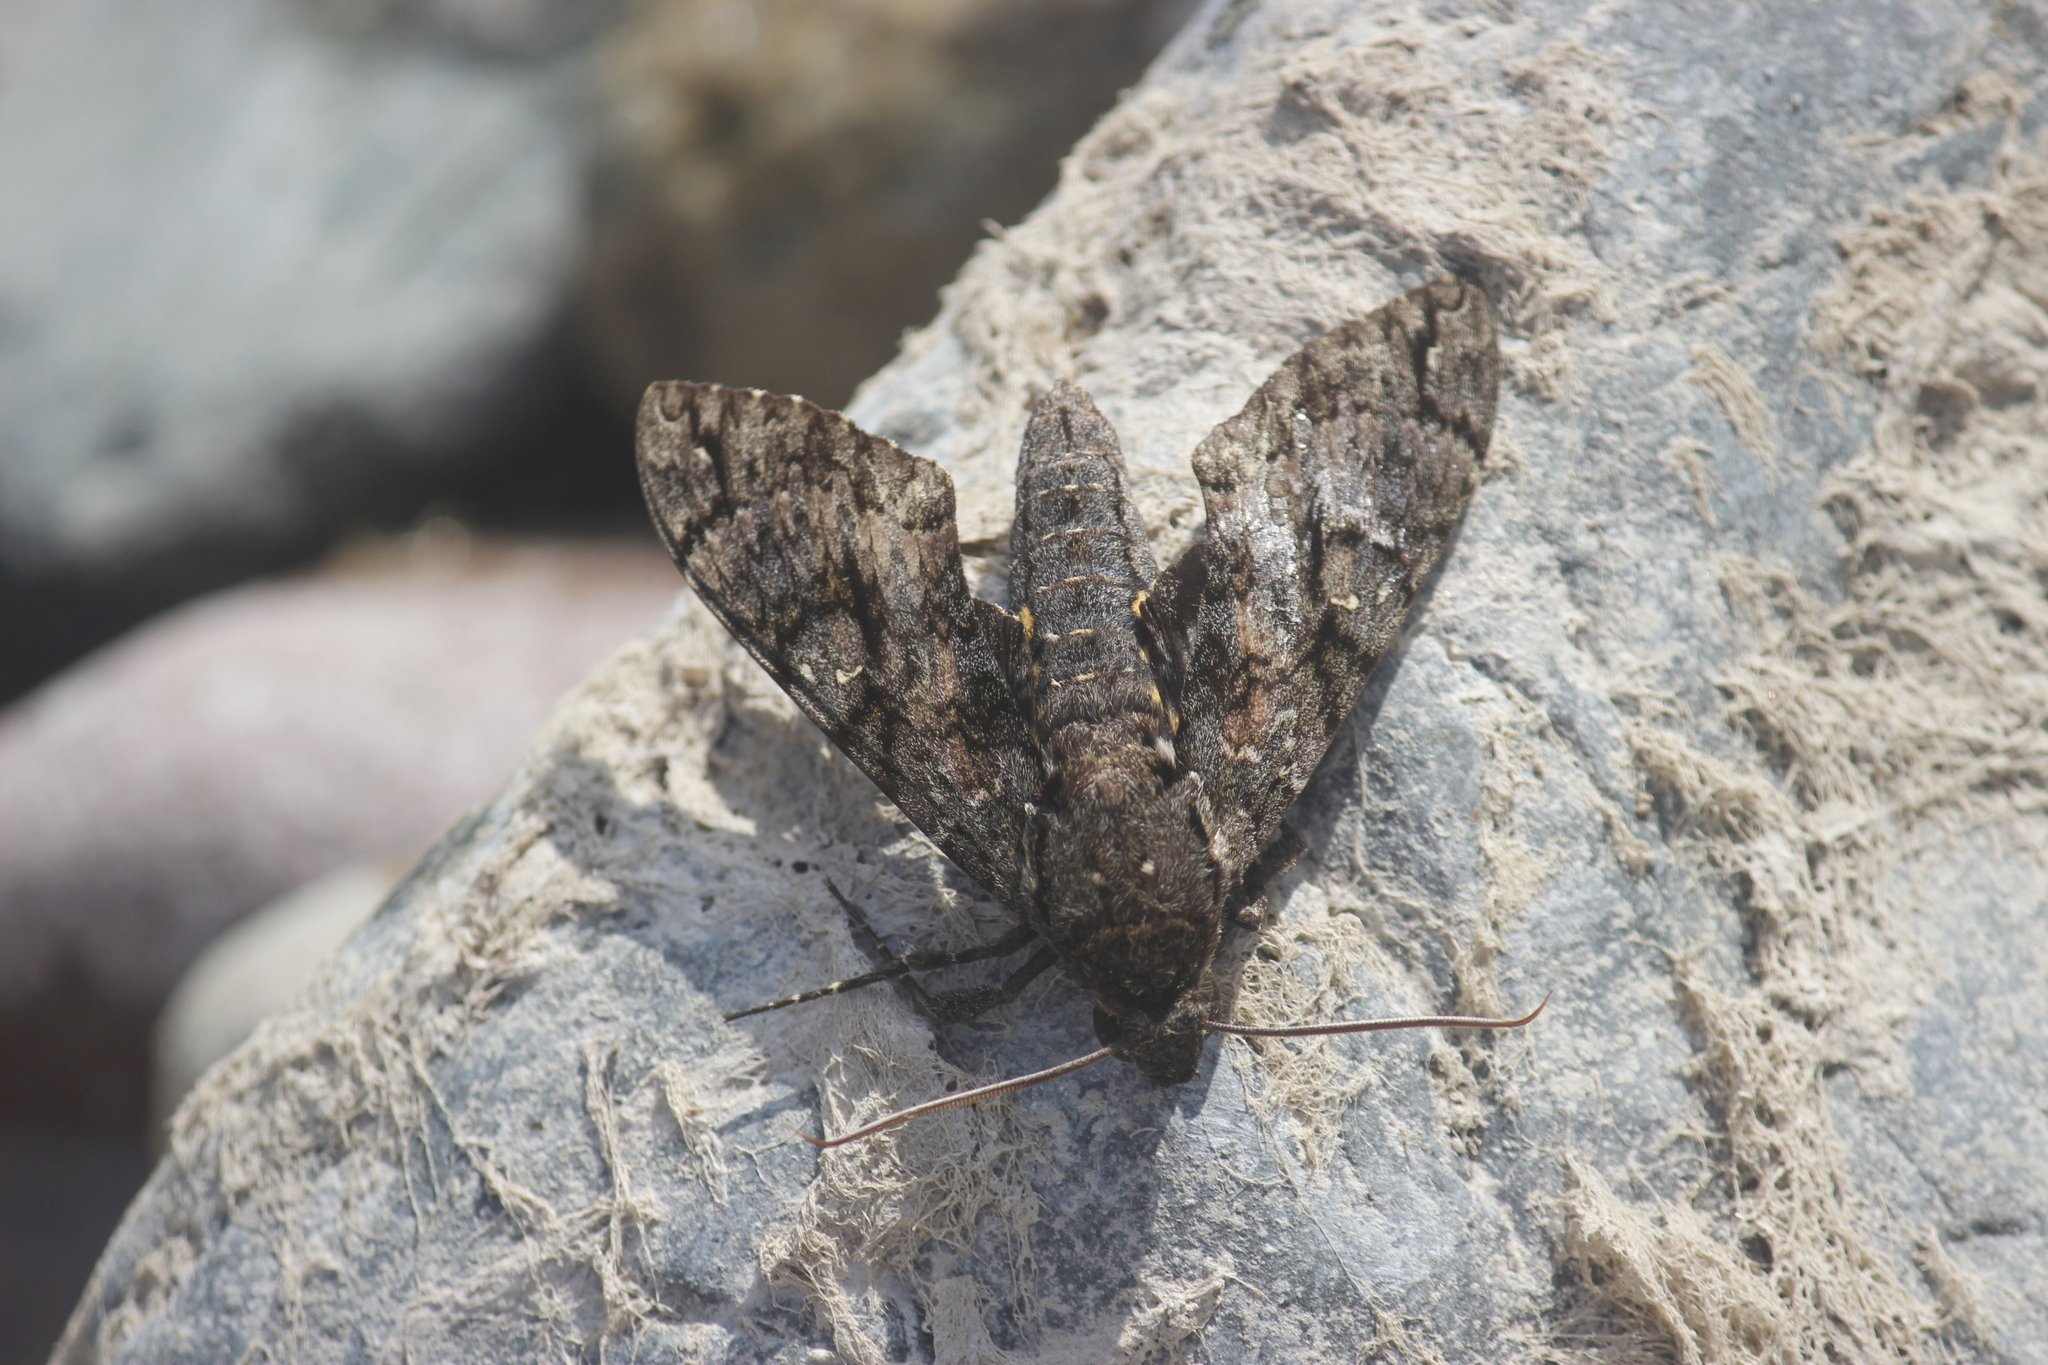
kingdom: Animalia
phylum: Arthropoda
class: Insecta
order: Lepidoptera
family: Sphingidae
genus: Cocytius
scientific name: Cocytius antaeus
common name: Giant sphinx
